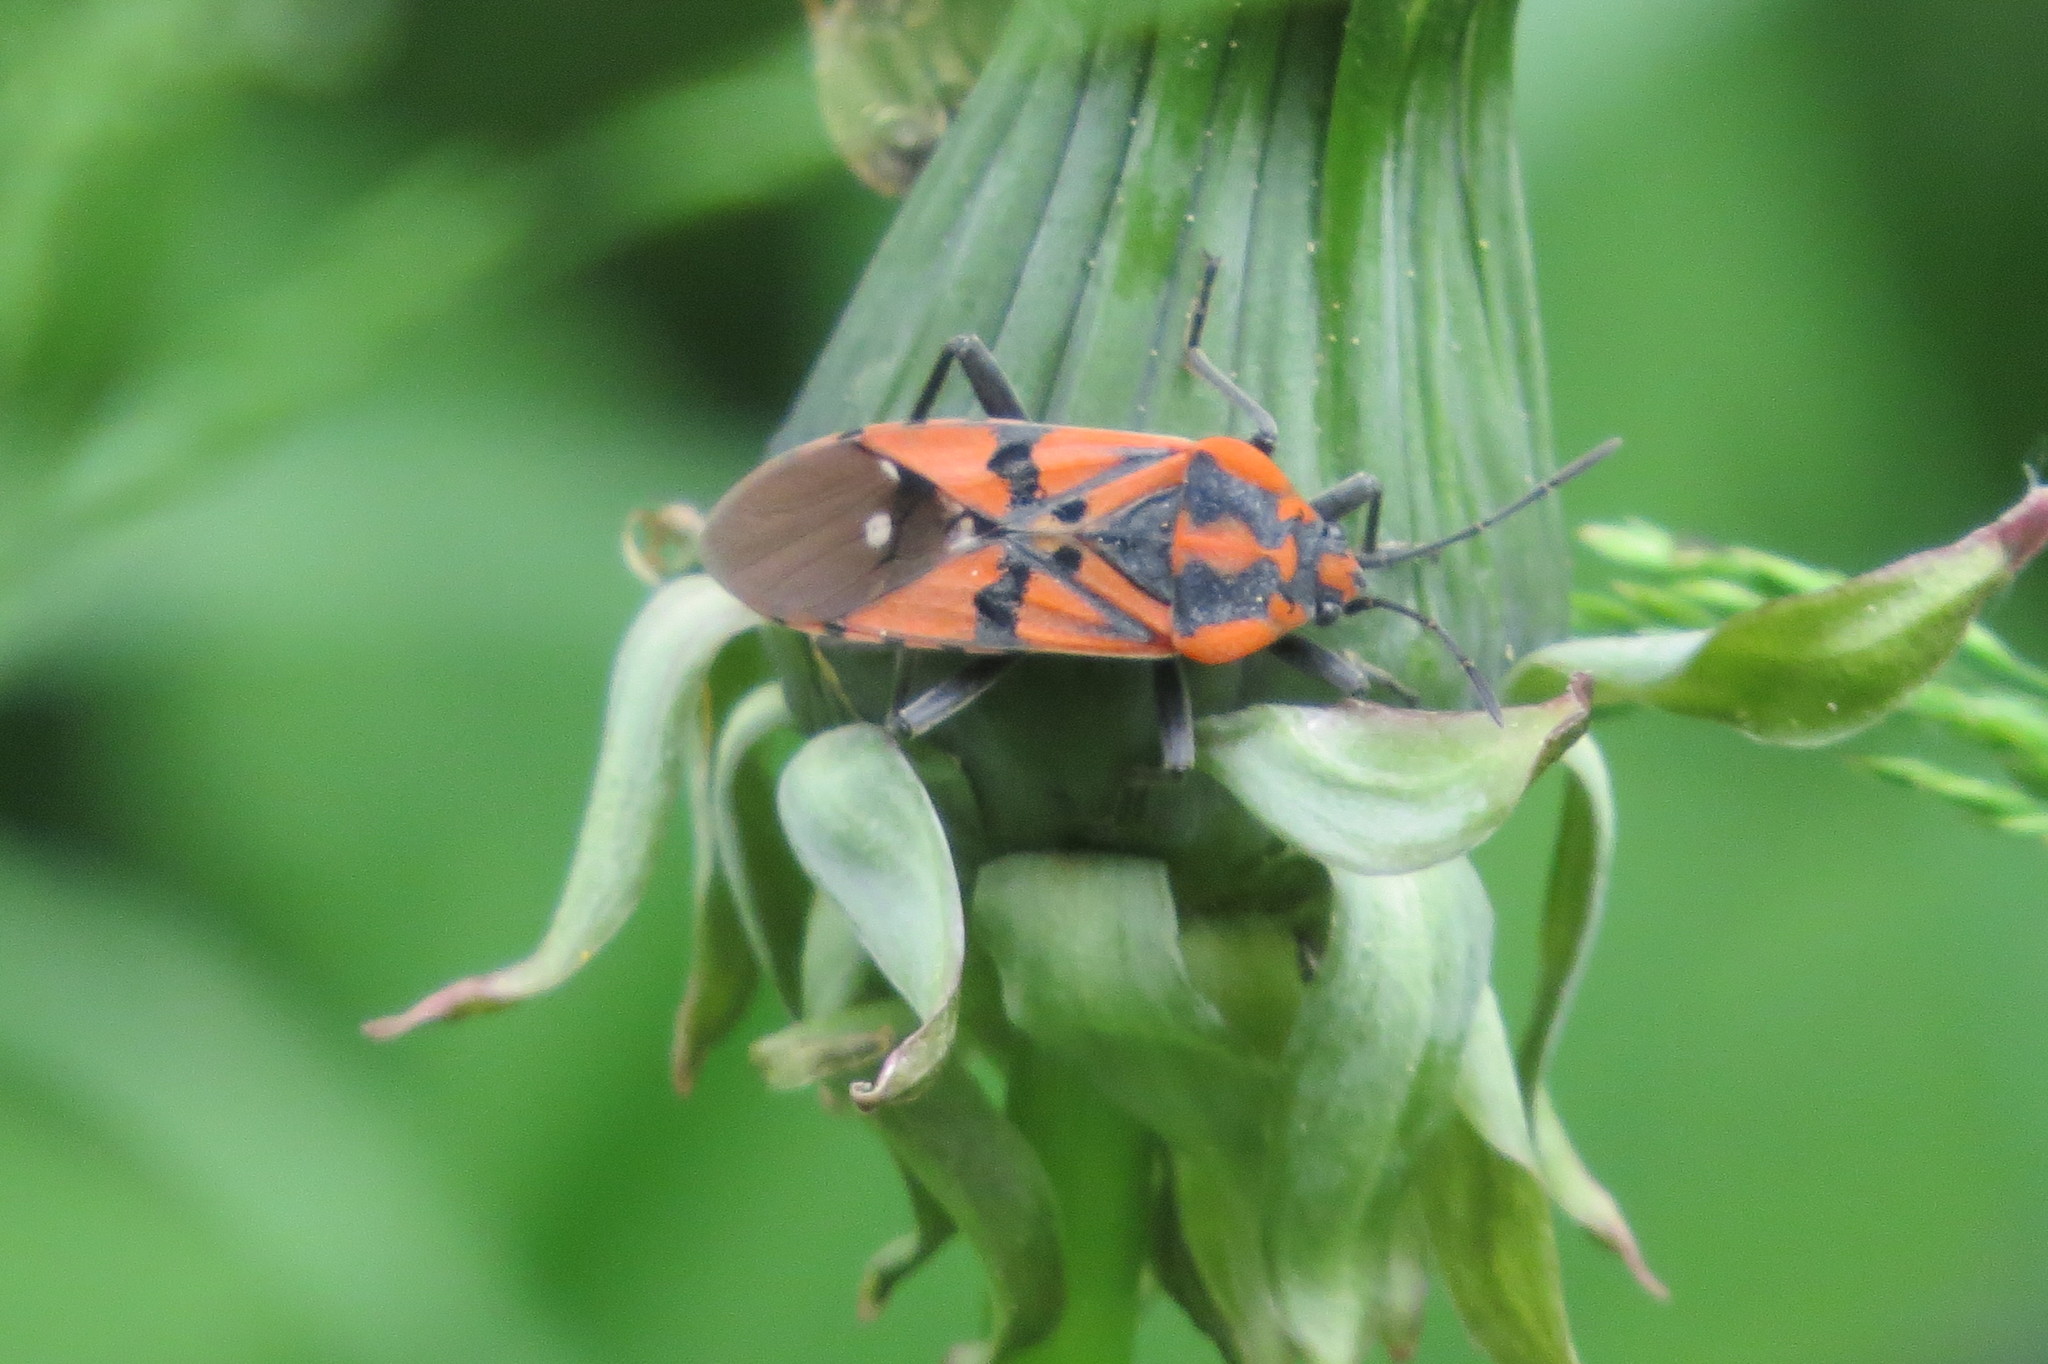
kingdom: Animalia
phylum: Arthropoda
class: Insecta
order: Hemiptera
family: Lygaeidae
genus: Spilostethus
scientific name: Spilostethus pandurus
